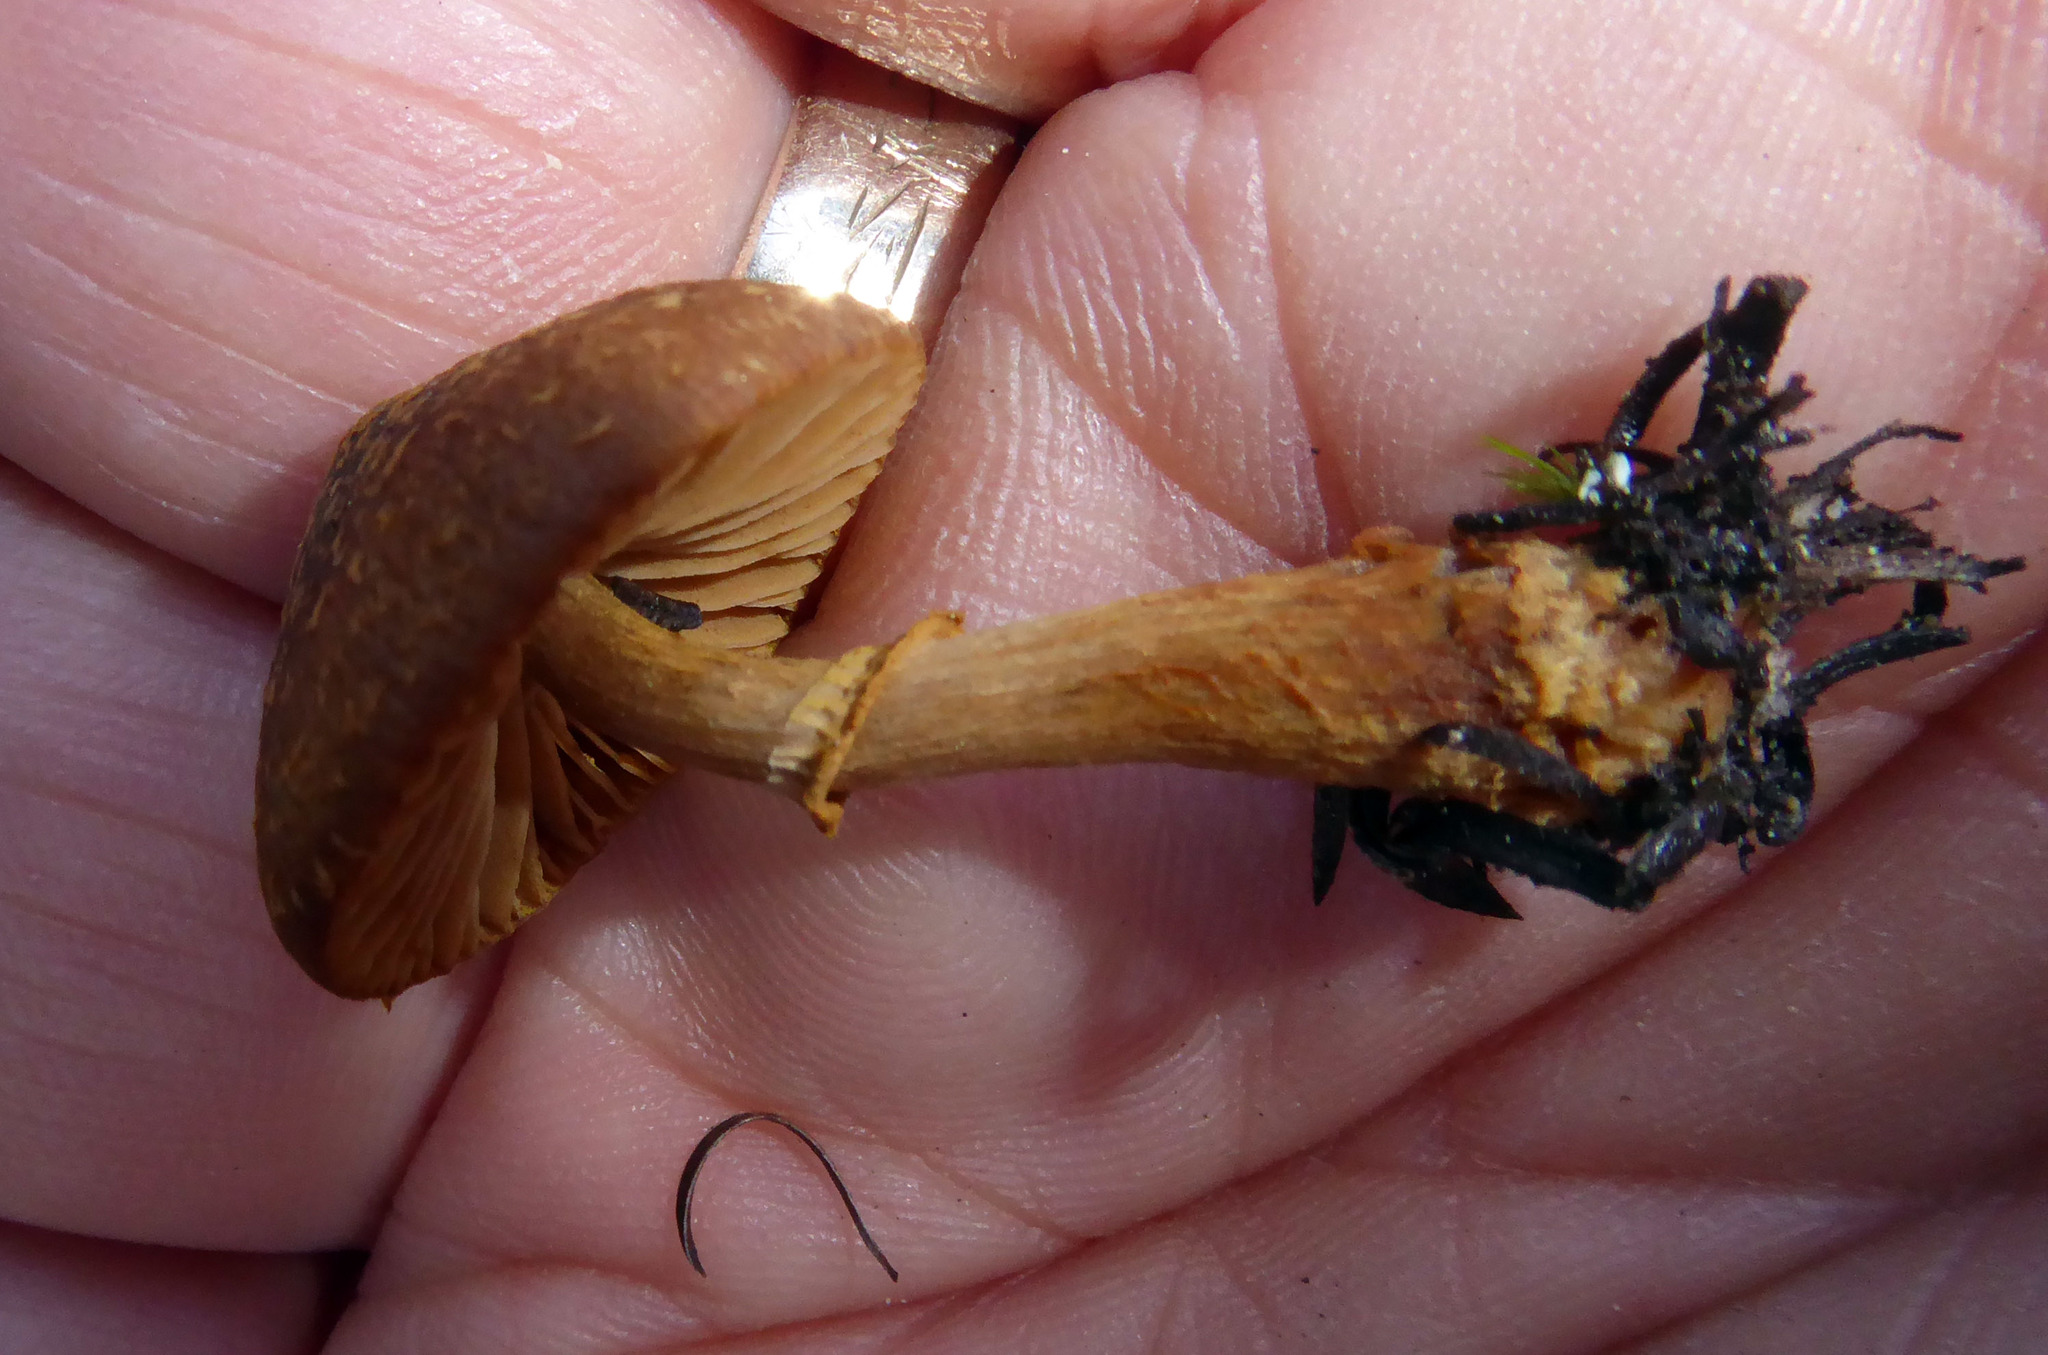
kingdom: Fungi
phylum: Basidiomycota
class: Agaricomycetes
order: Agaricales
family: Bolbitiaceae
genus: Descolea
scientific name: Descolea maculata
